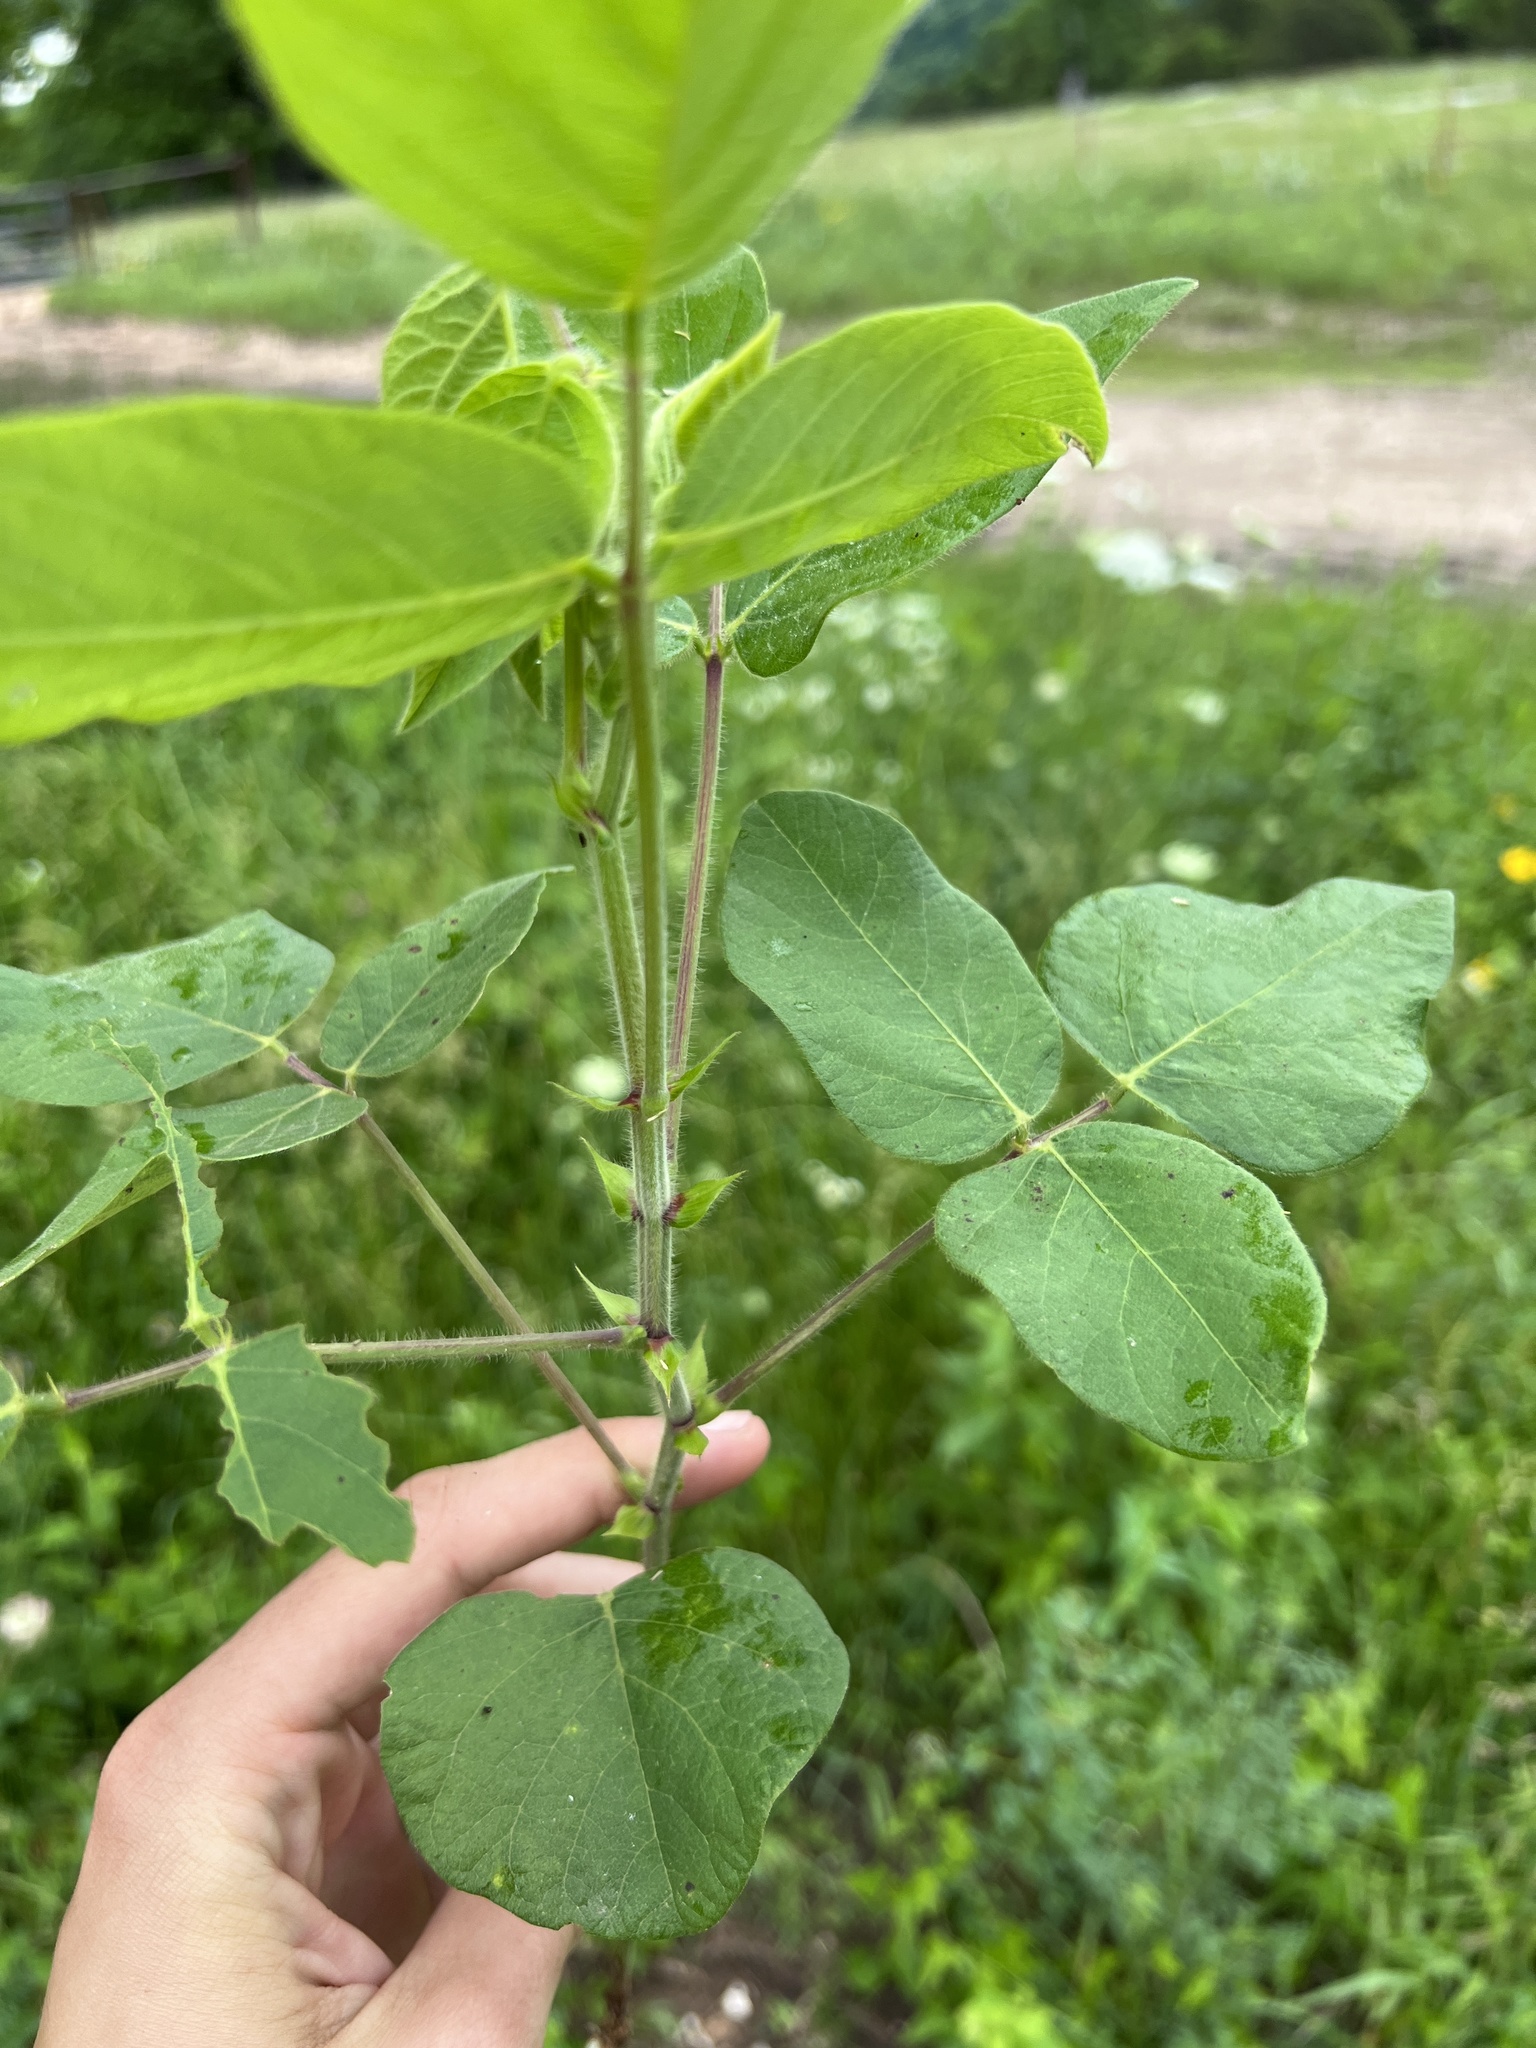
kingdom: Plantae
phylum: Tracheophyta
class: Magnoliopsida
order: Fabales
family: Fabaceae
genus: Desmodium
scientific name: Desmodium canescens
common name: Hoary tick-clover
